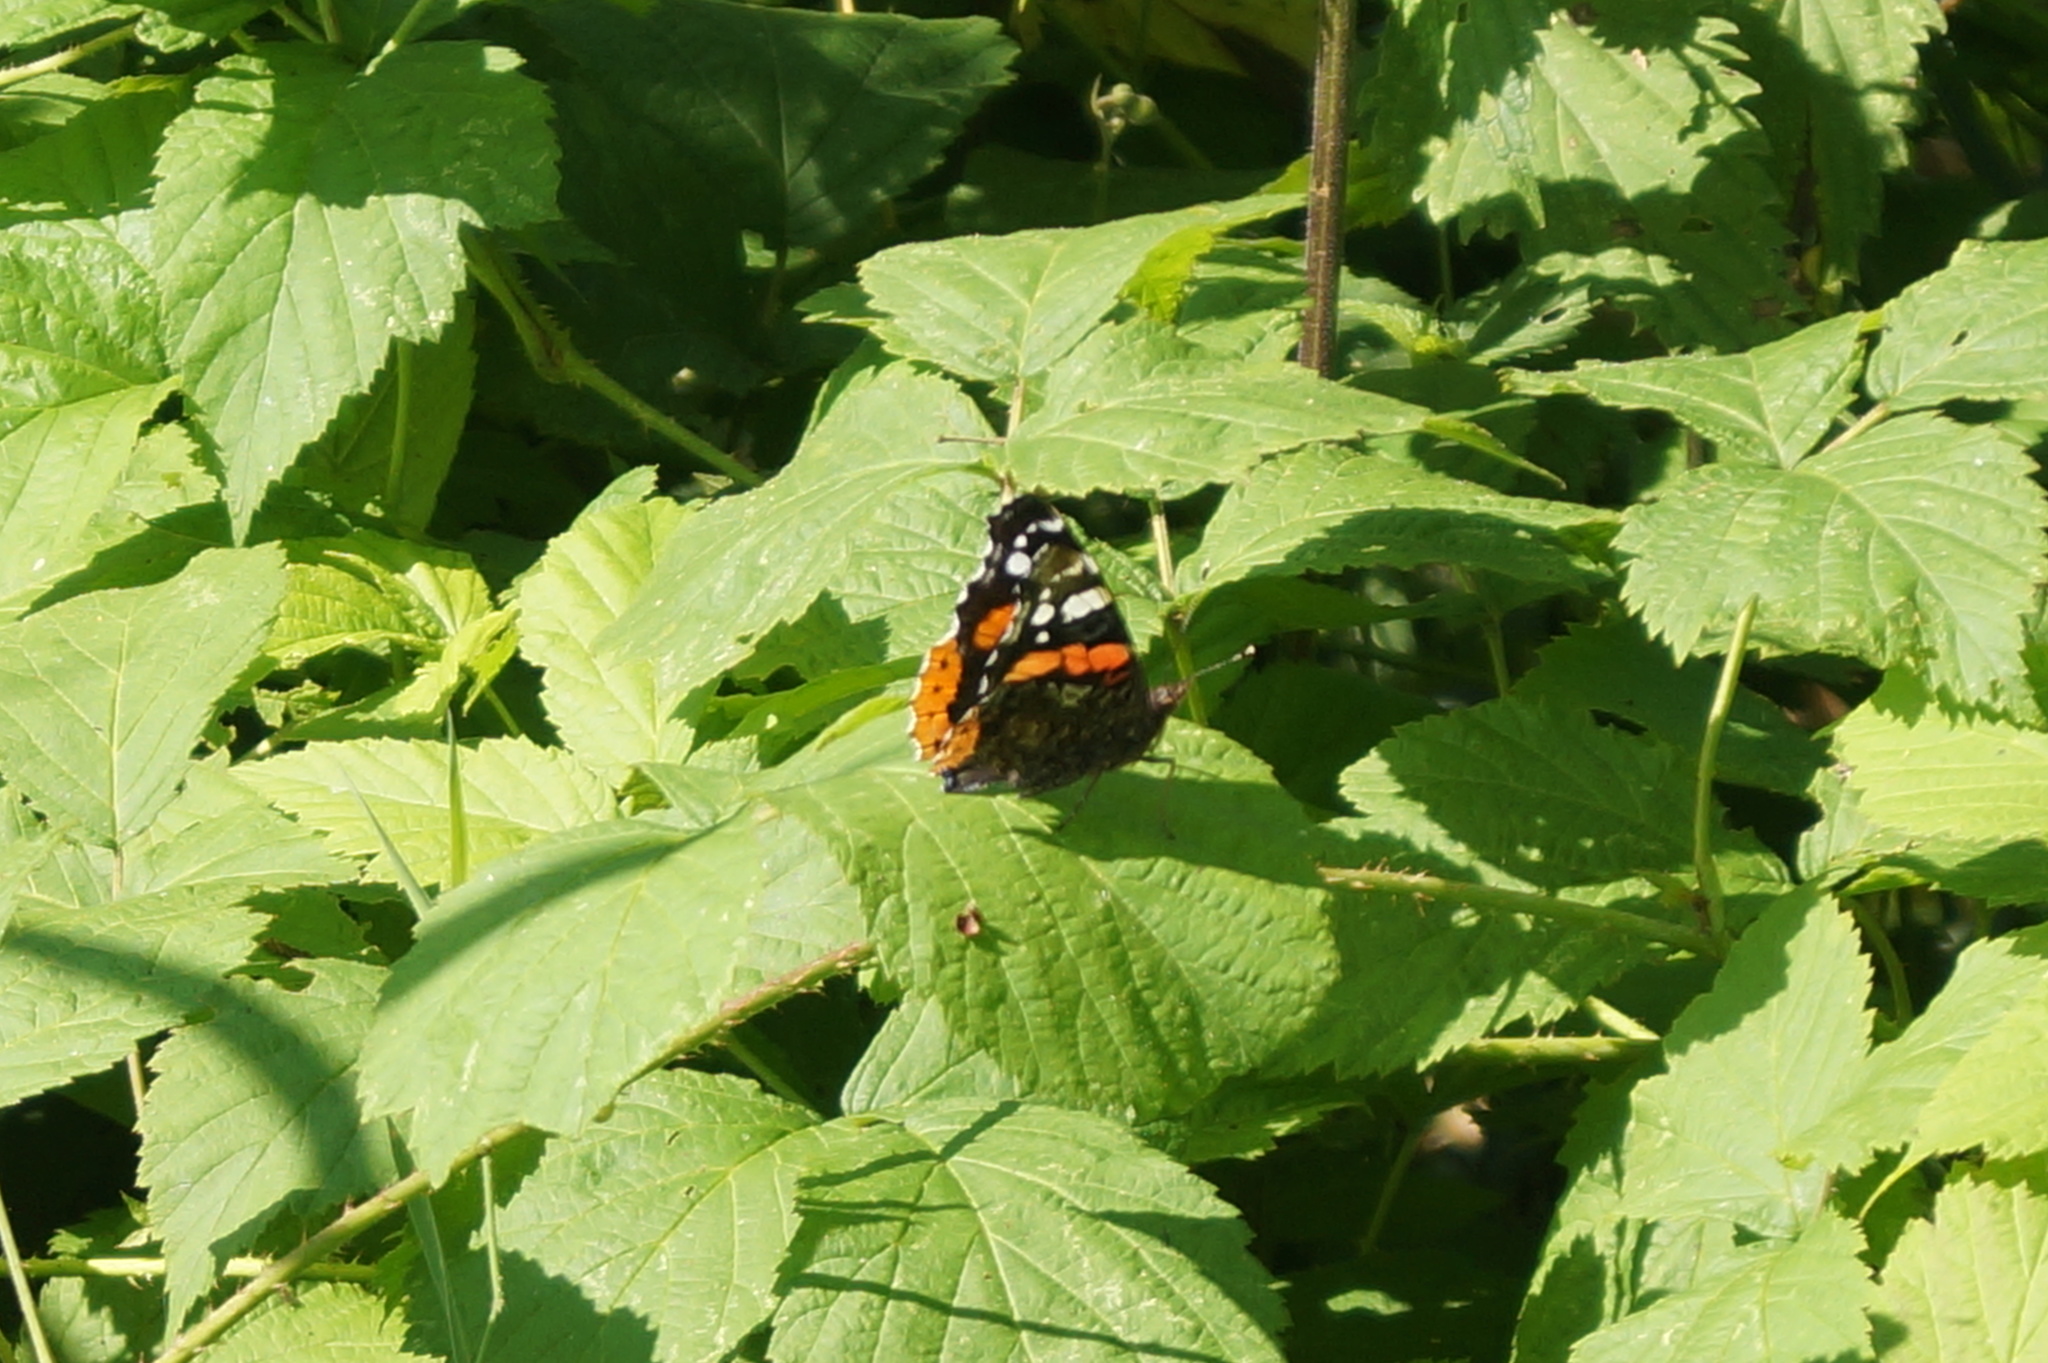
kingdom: Animalia
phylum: Arthropoda
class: Insecta
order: Lepidoptera
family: Nymphalidae
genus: Vanessa
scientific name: Vanessa atalanta
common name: Red admiral
